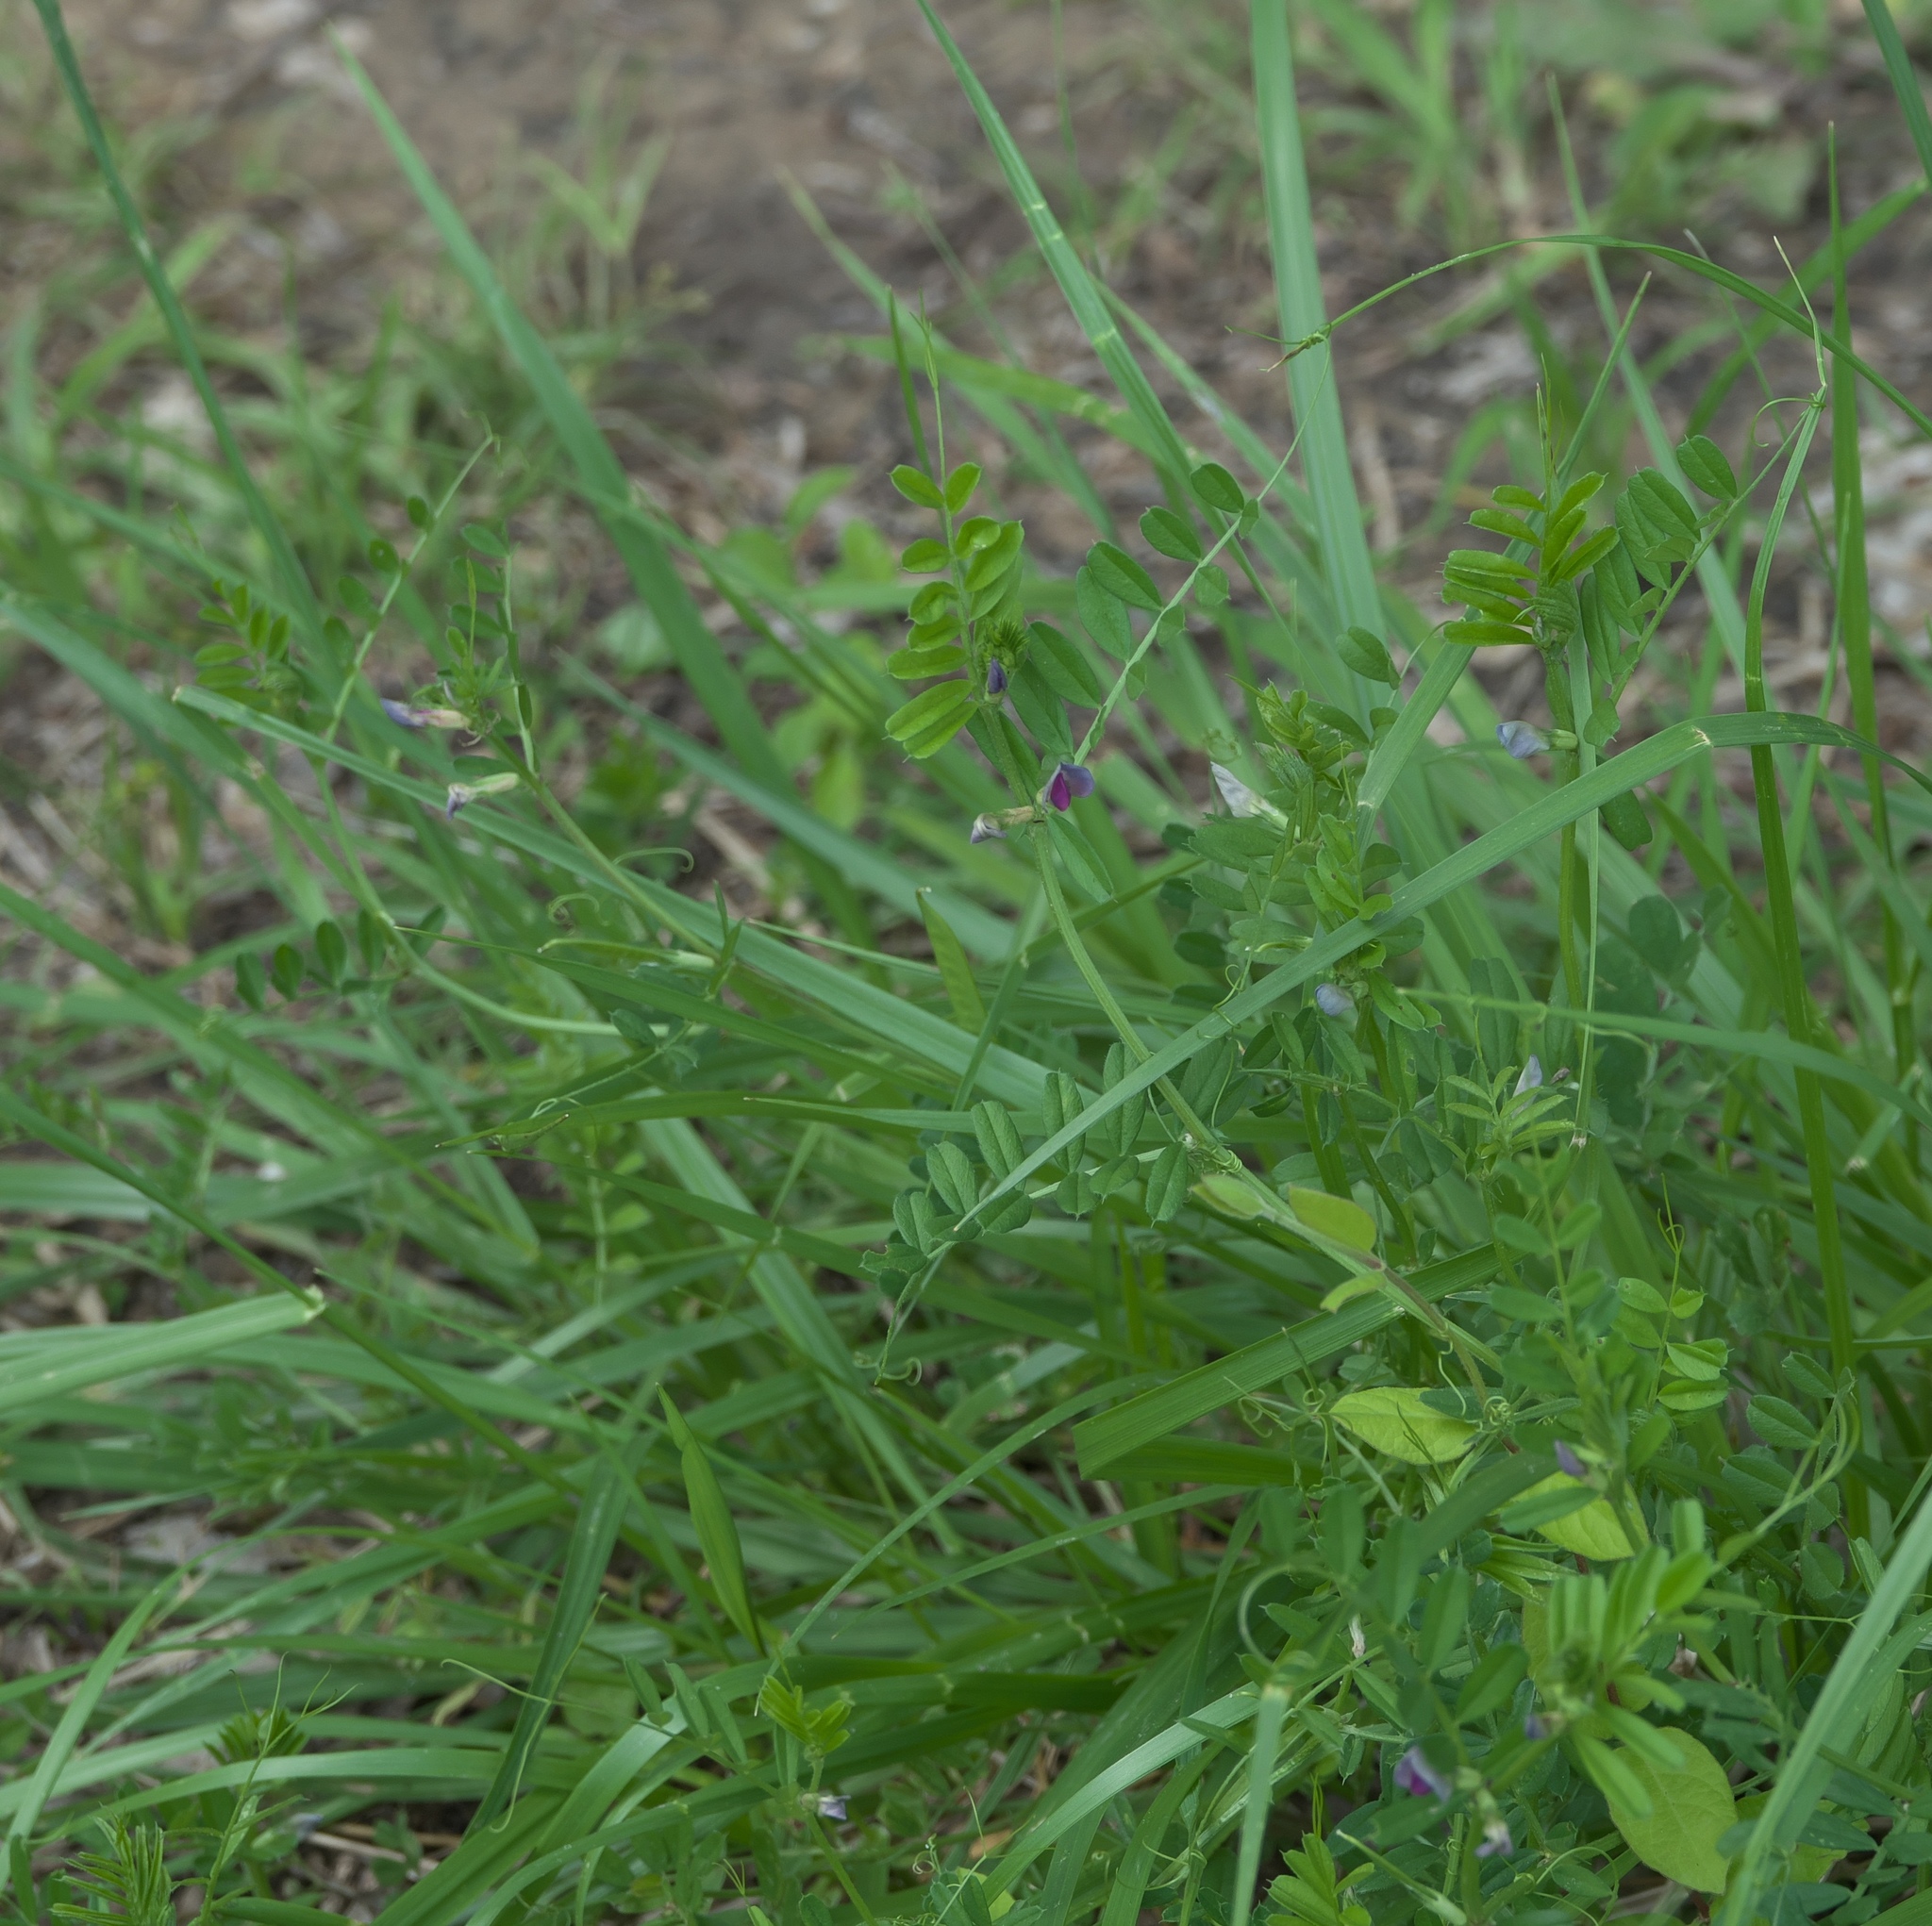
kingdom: Plantae
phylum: Tracheophyta
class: Magnoliopsida
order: Fabales
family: Fabaceae
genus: Vicia
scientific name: Vicia sativa
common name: Garden vetch
